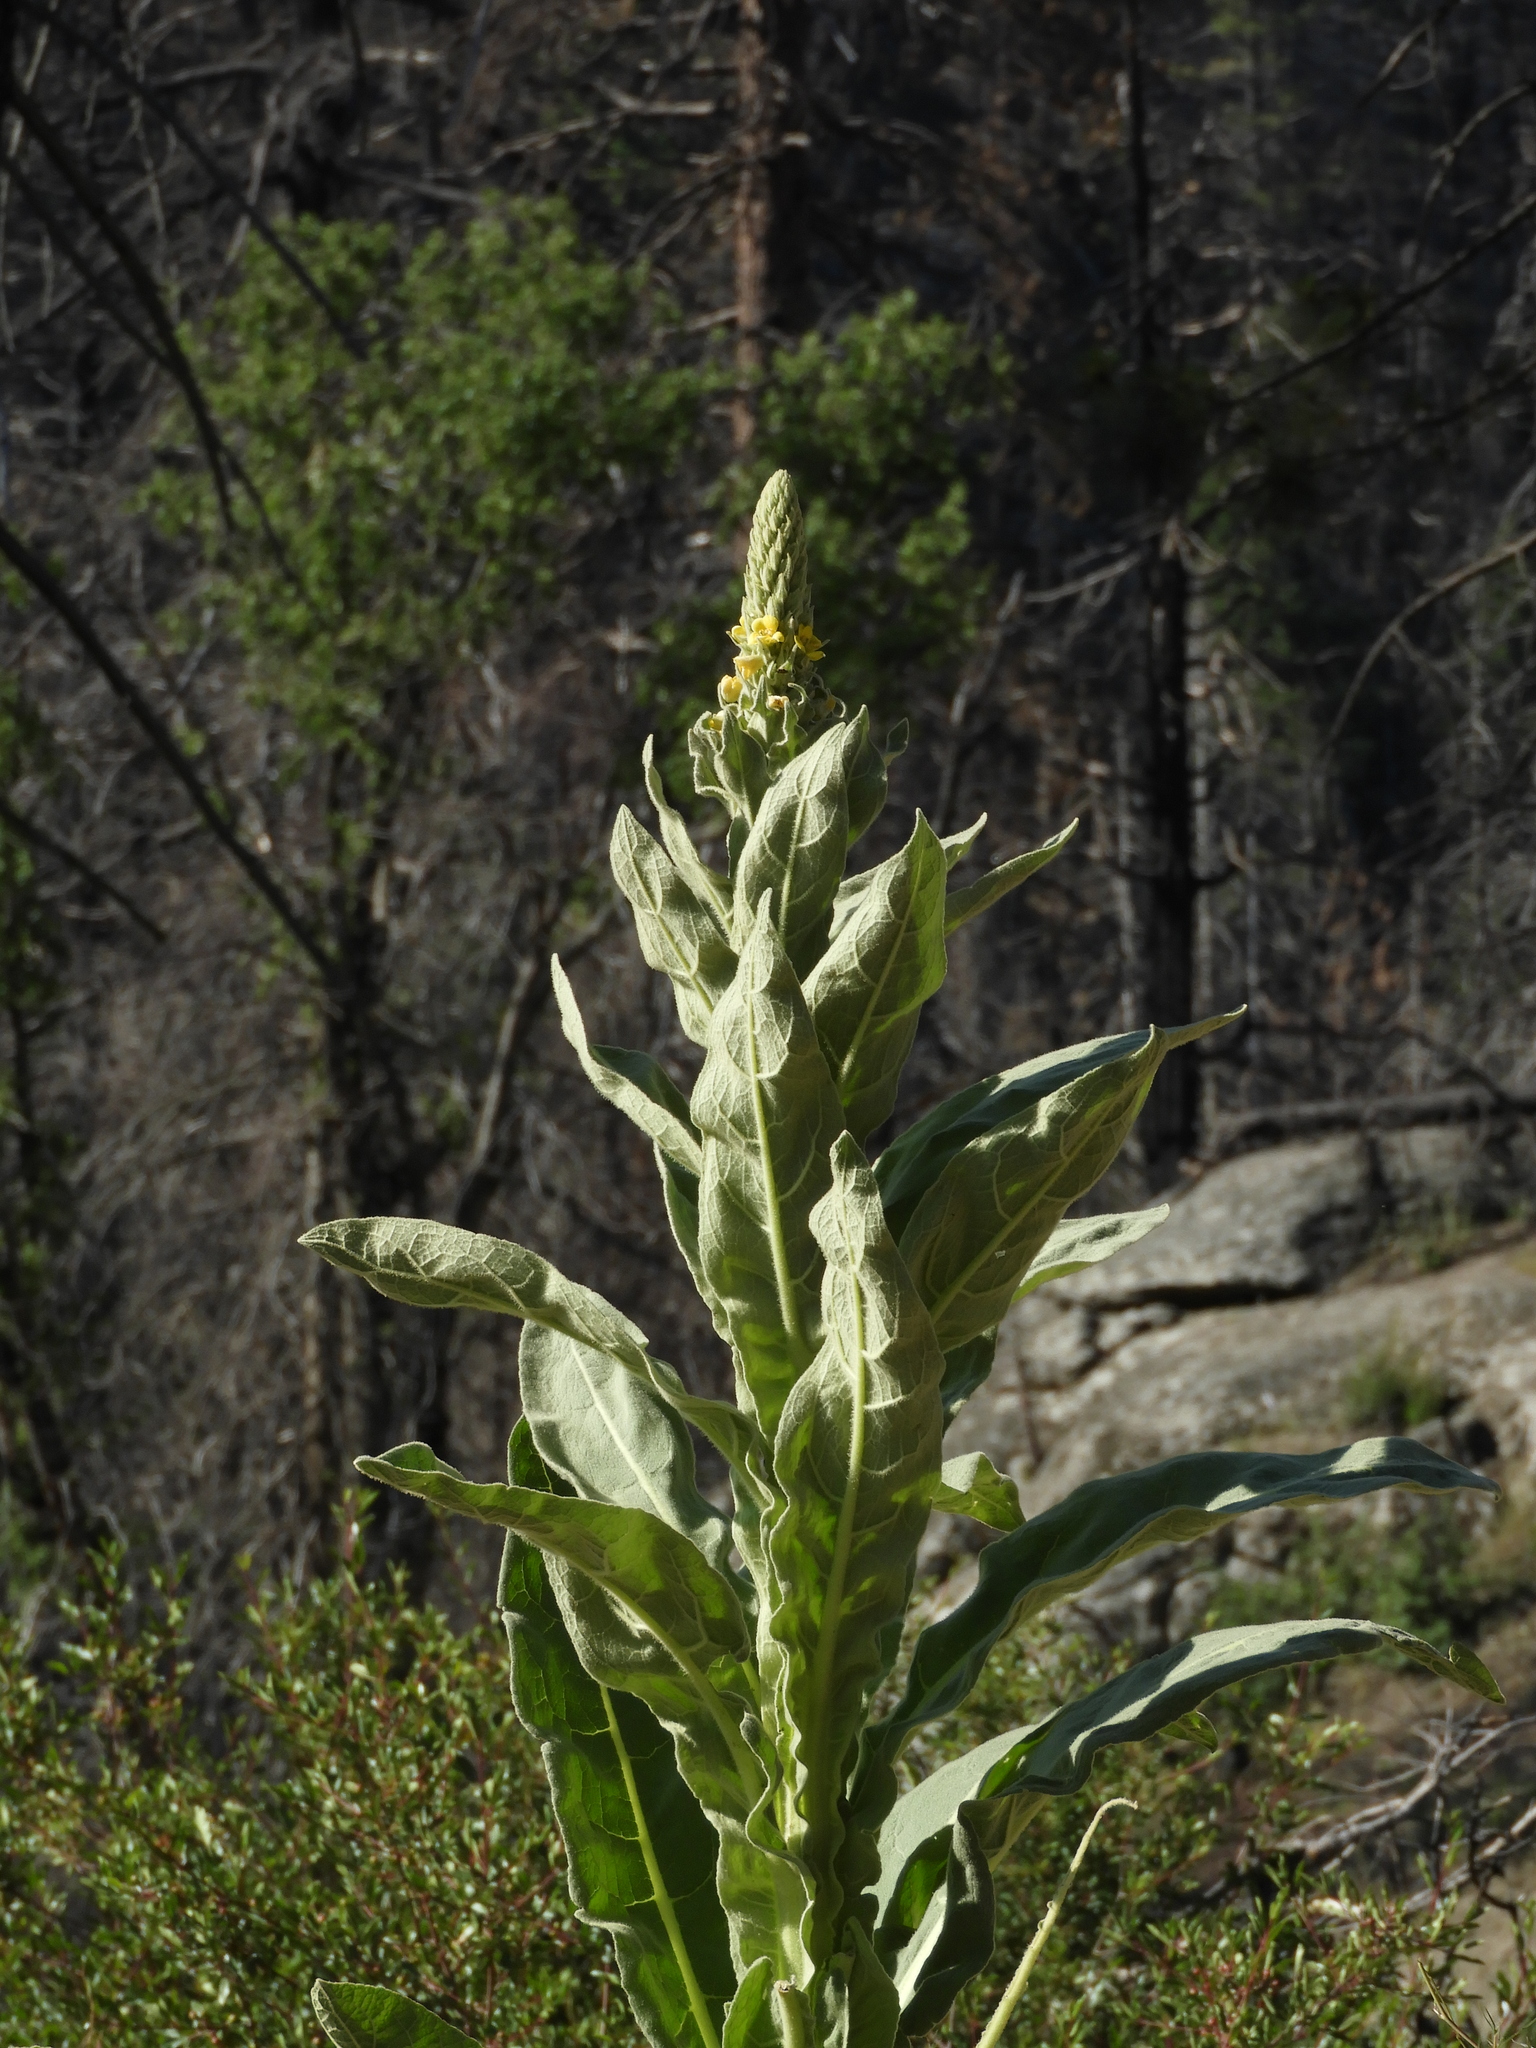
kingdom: Plantae
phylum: Tracheophyta
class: Magnoliopsida
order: Lamiales
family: Scrophulariaceae
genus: Verbascum
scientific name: Verbascum thapsus
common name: Common mullein
